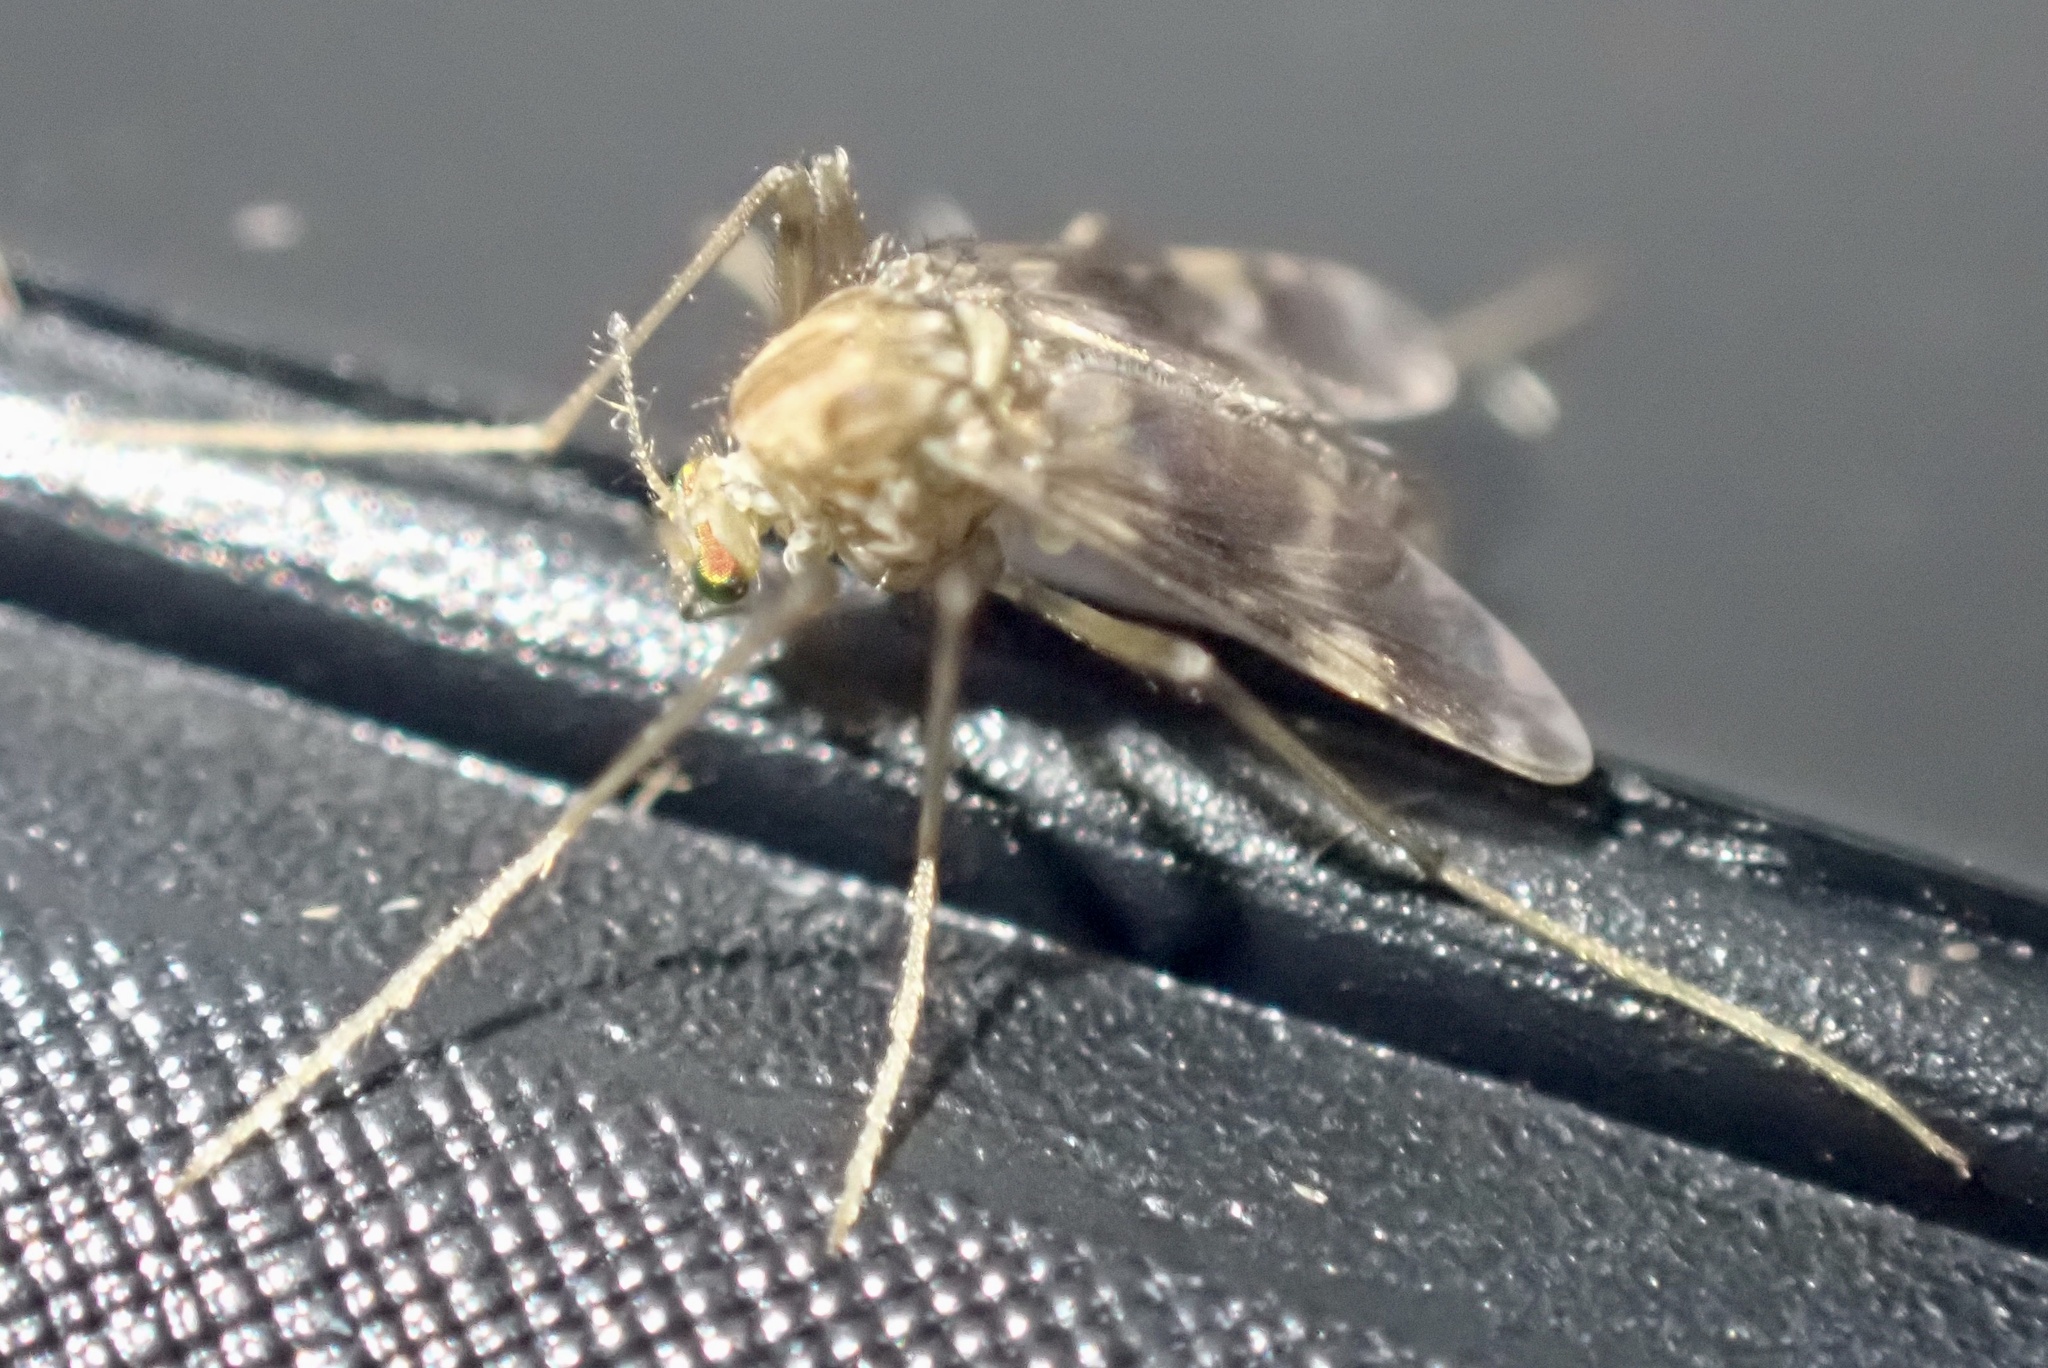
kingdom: Animalia
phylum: Arthropoda
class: Insecta
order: Diptera
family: Chironomidae
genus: Psectrotanypus
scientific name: Psectrotanypus varius
